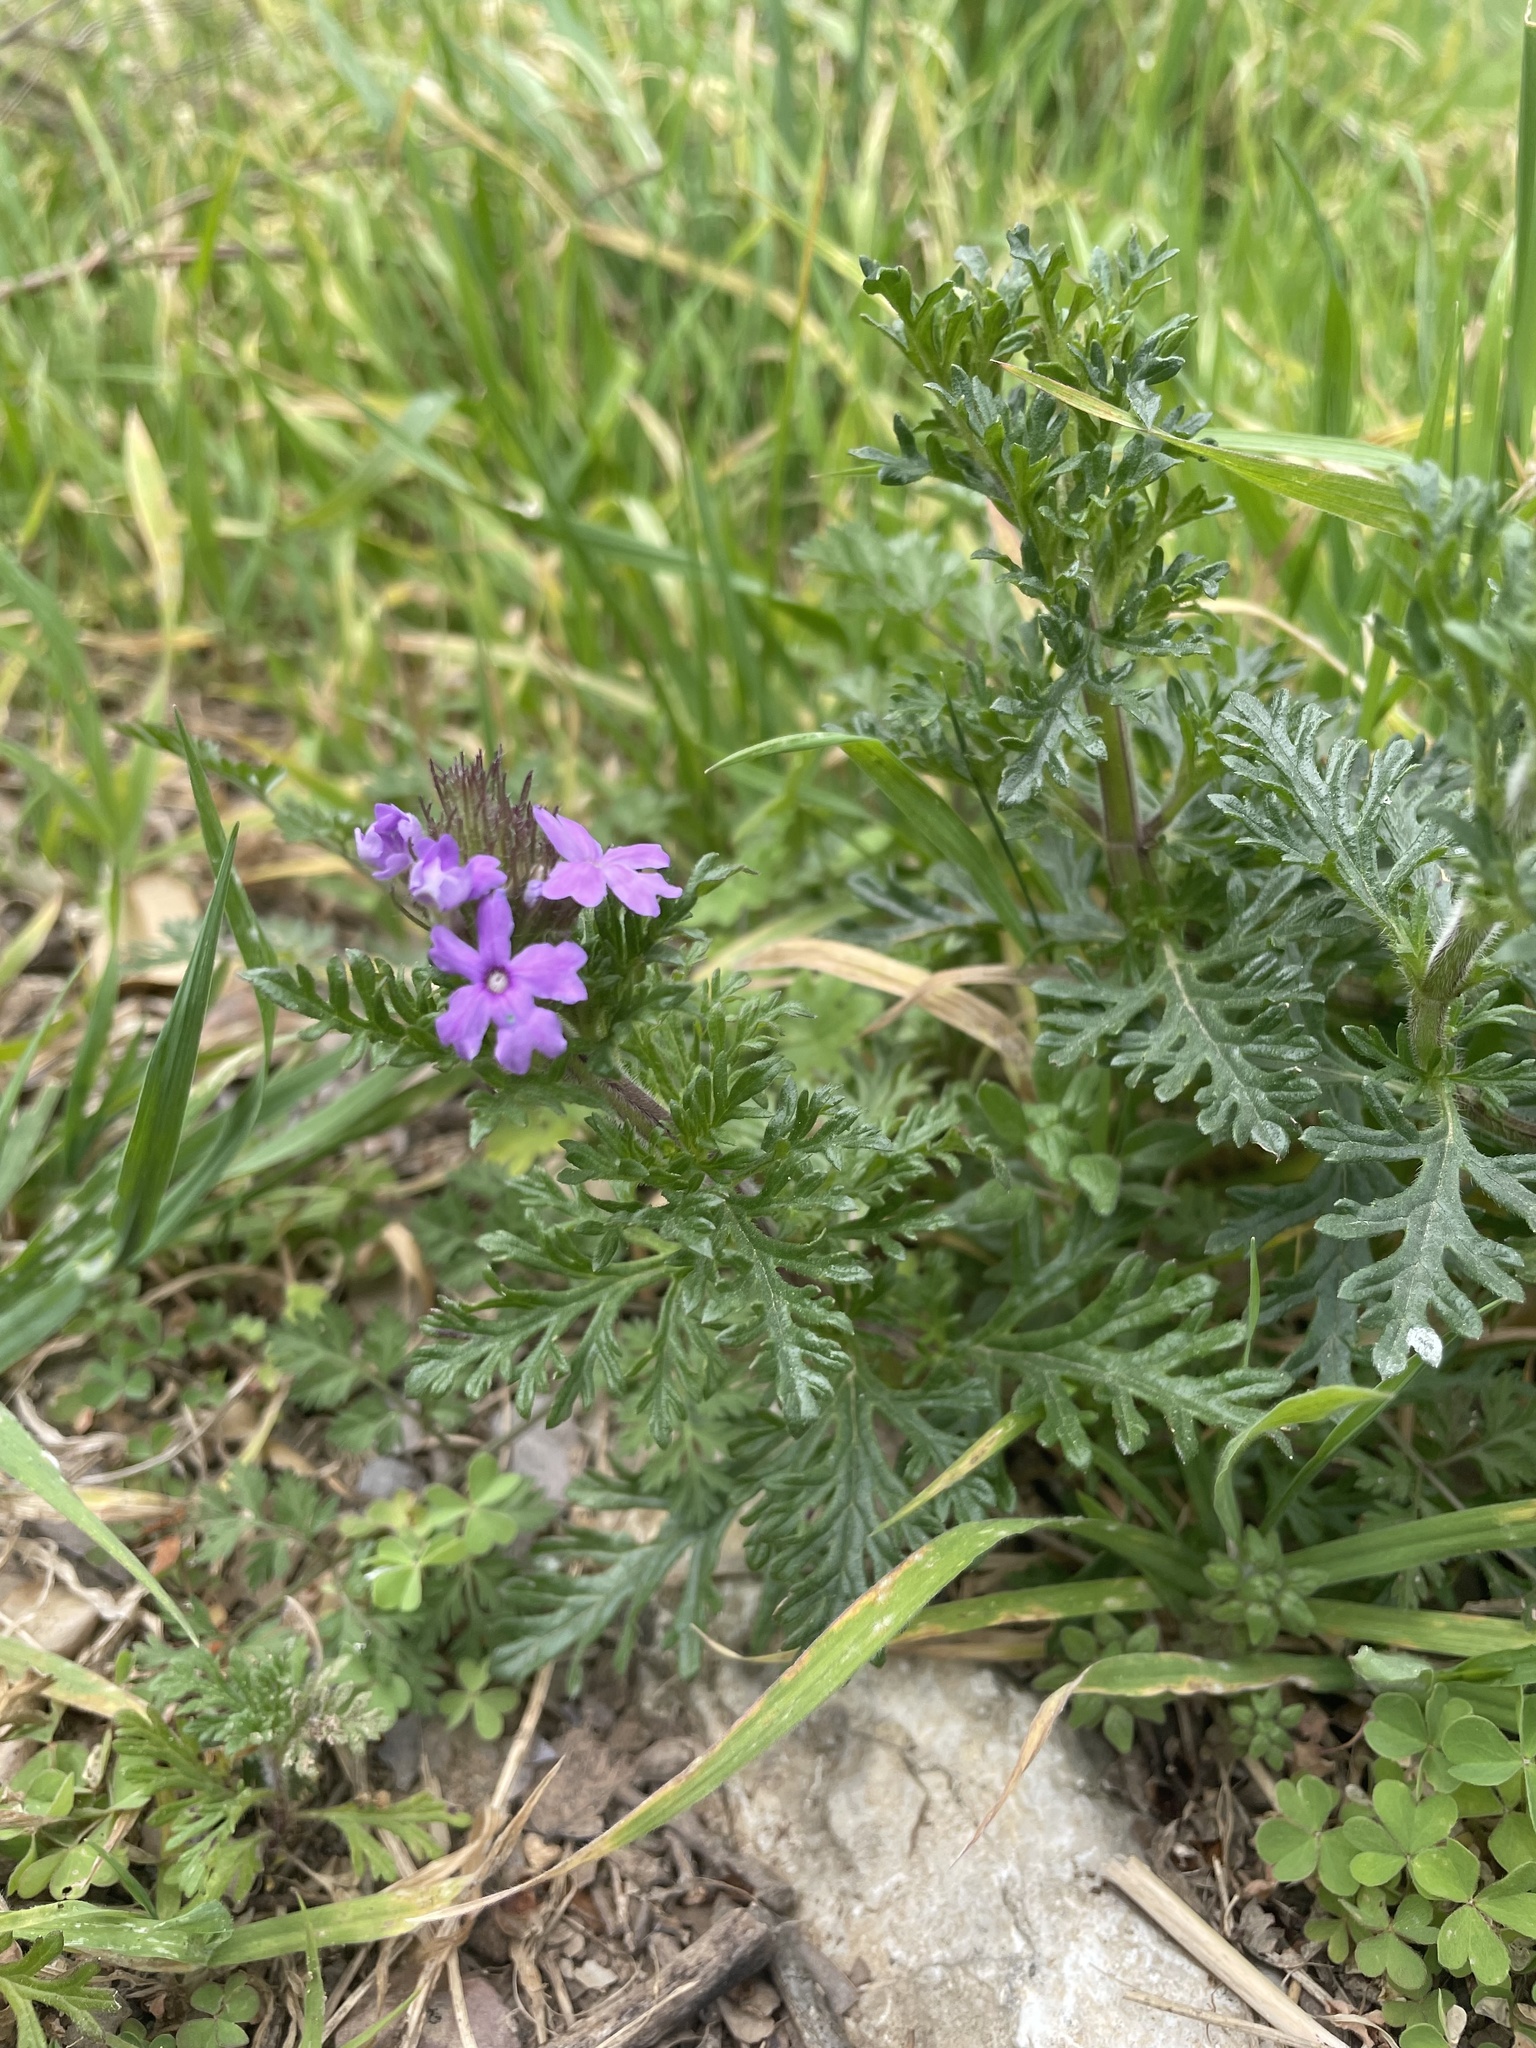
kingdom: Plantae
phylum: Tracheophyta
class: Magnoliopsida
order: Lamiales
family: Verbenaceae
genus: Verbena
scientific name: Verbena bipinnatifida
